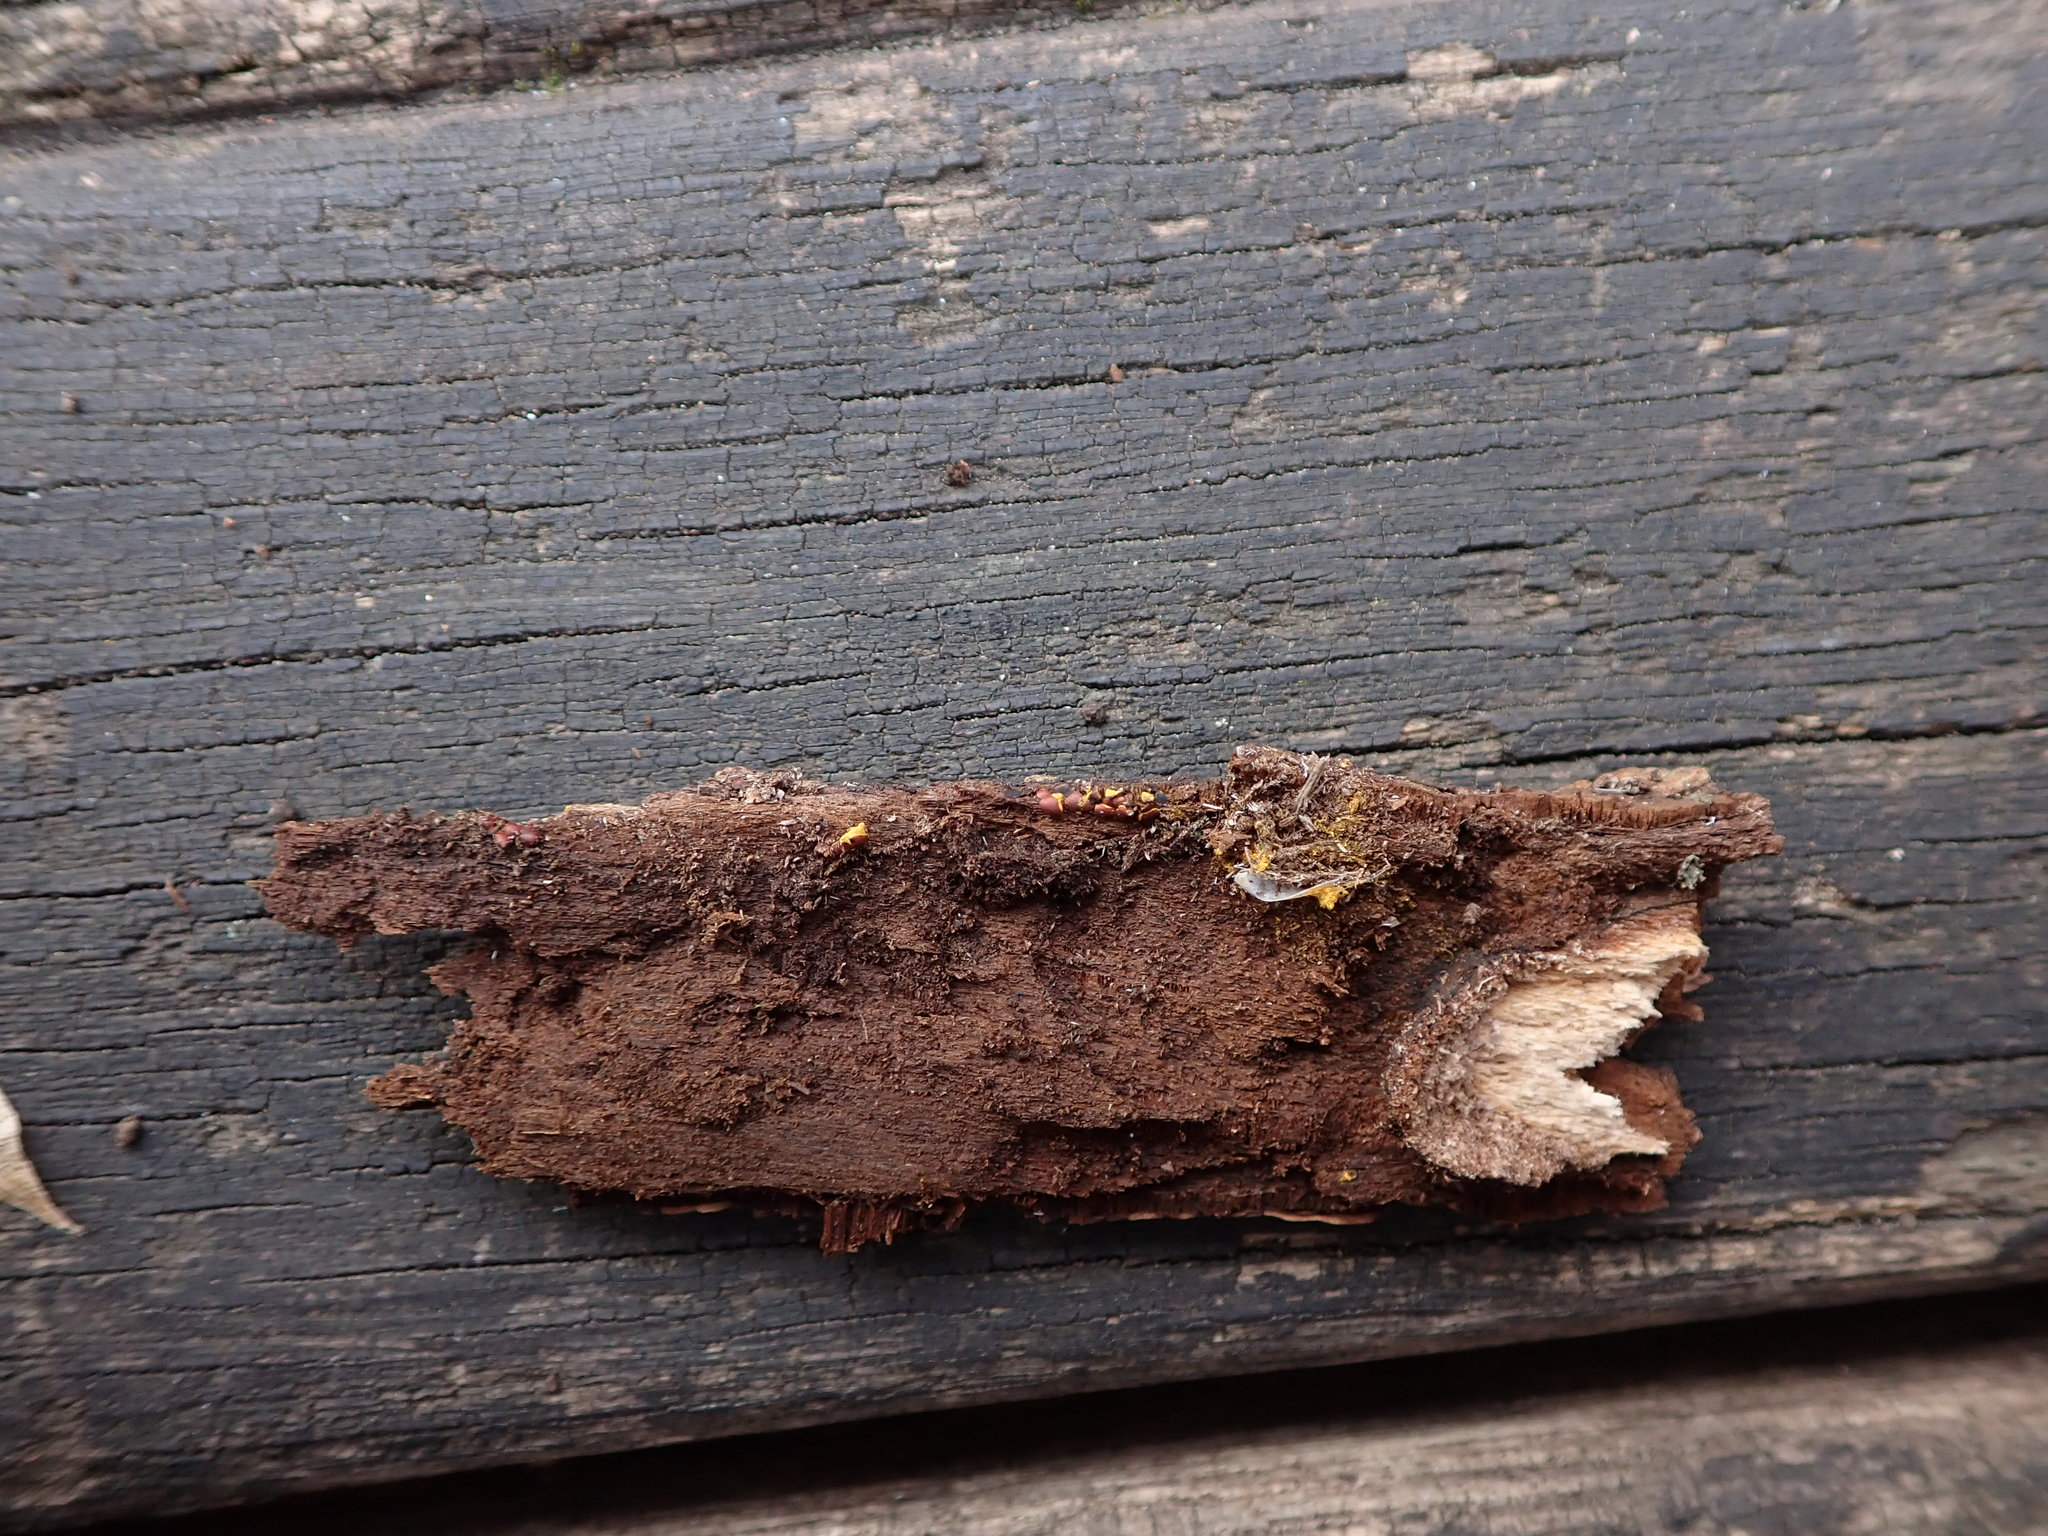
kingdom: Protozoa
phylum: Mycetozoa
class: Myxomycetes
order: Trichiales
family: Trichiaceae
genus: Perichaena
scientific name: Perichaena depressa
